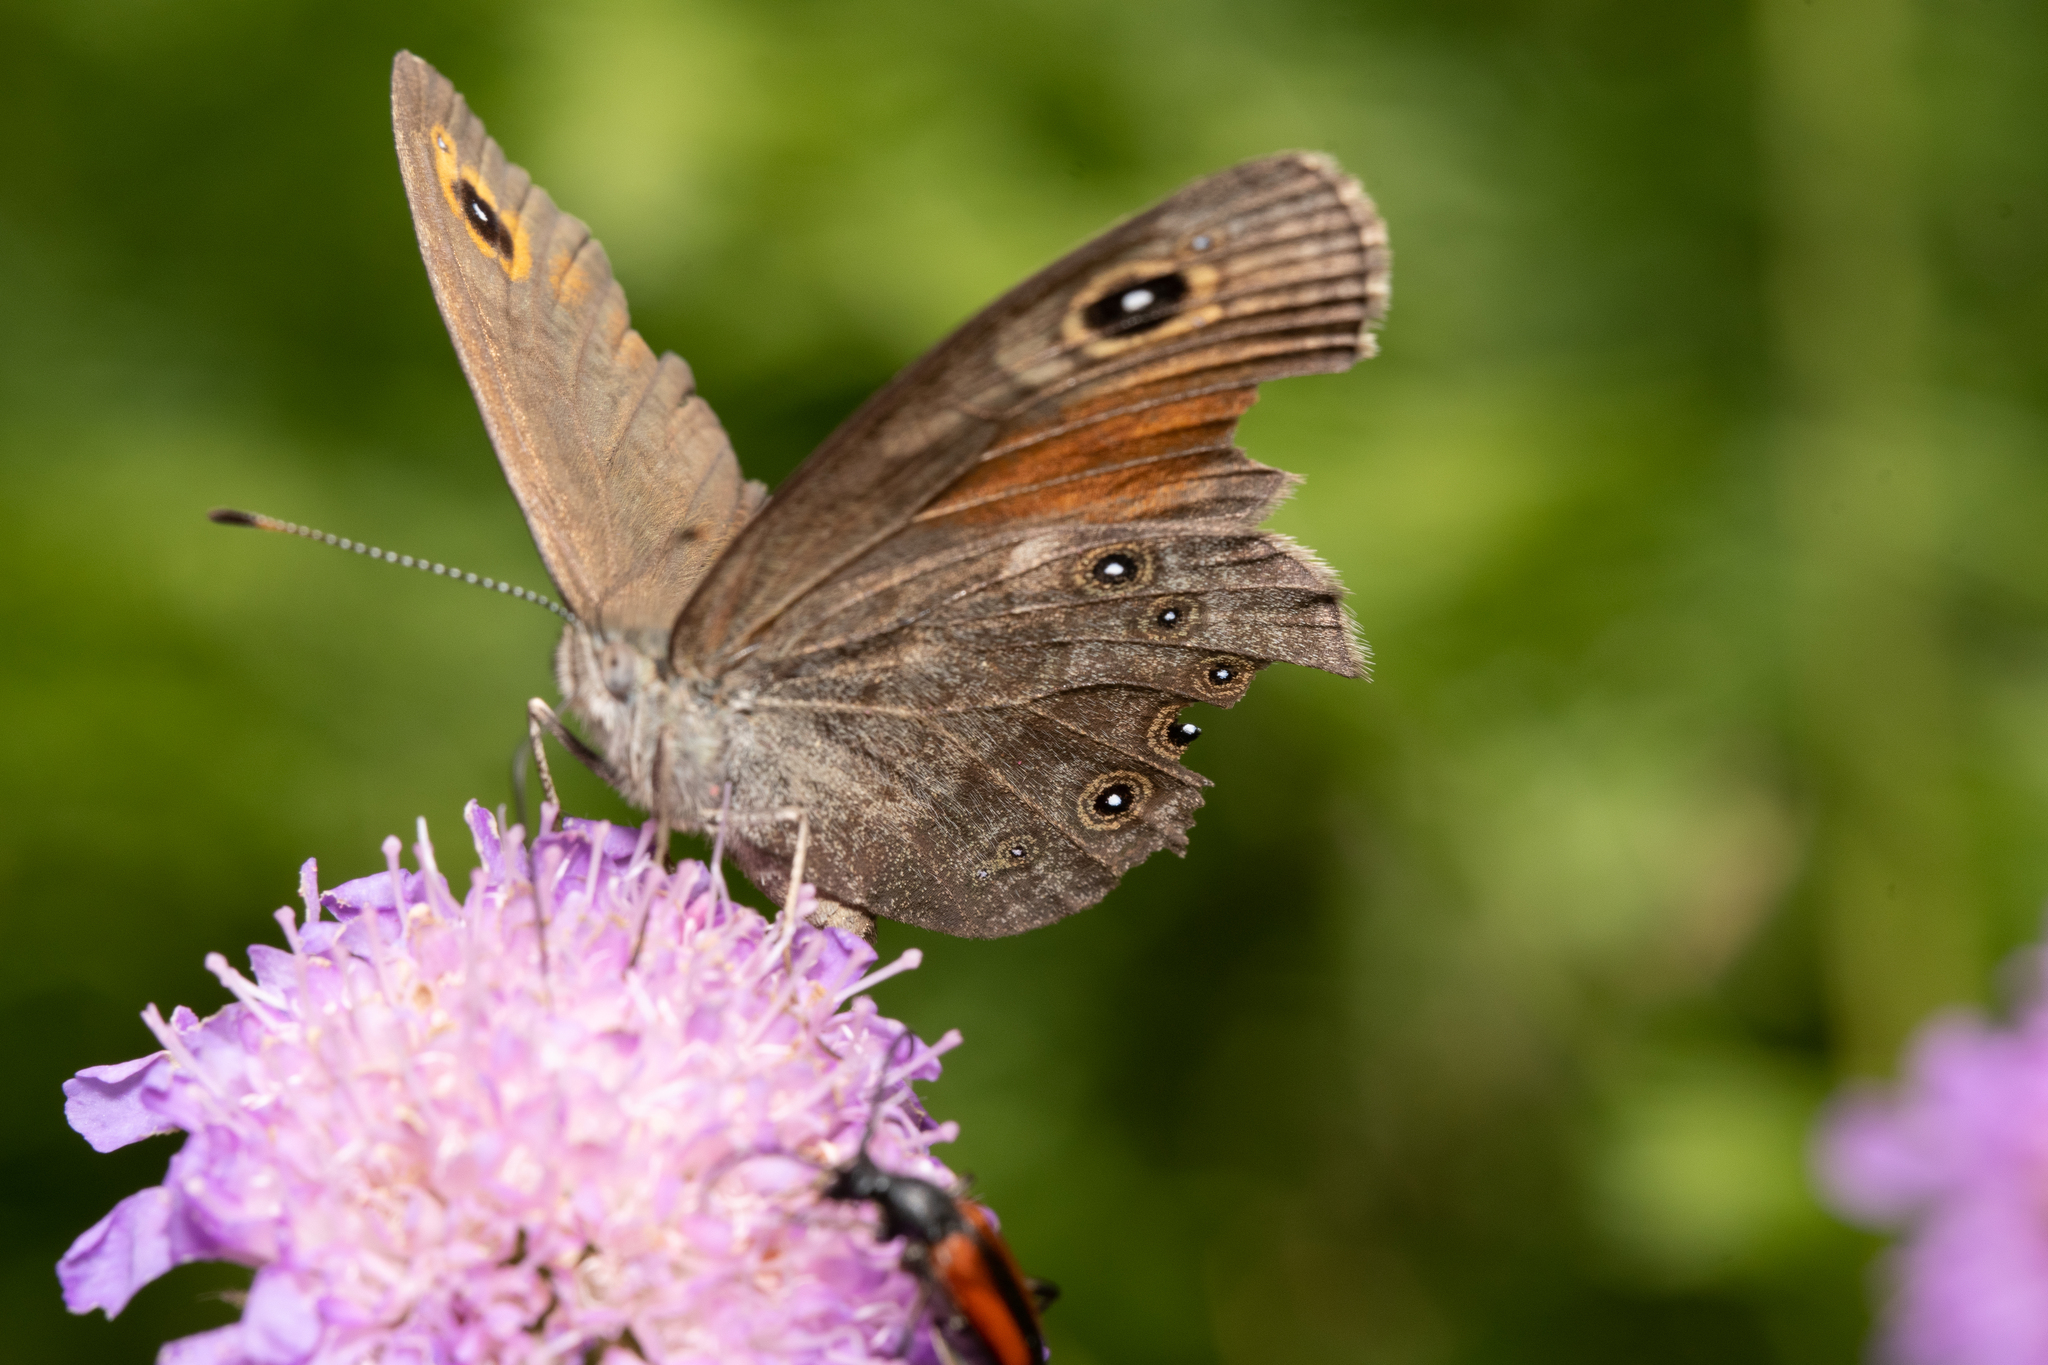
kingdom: Animalia
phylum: Arthropoda
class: Insecta
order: Lepidoptera
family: Nymphalidae
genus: Pararge
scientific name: Pararge Lasiommata maera
